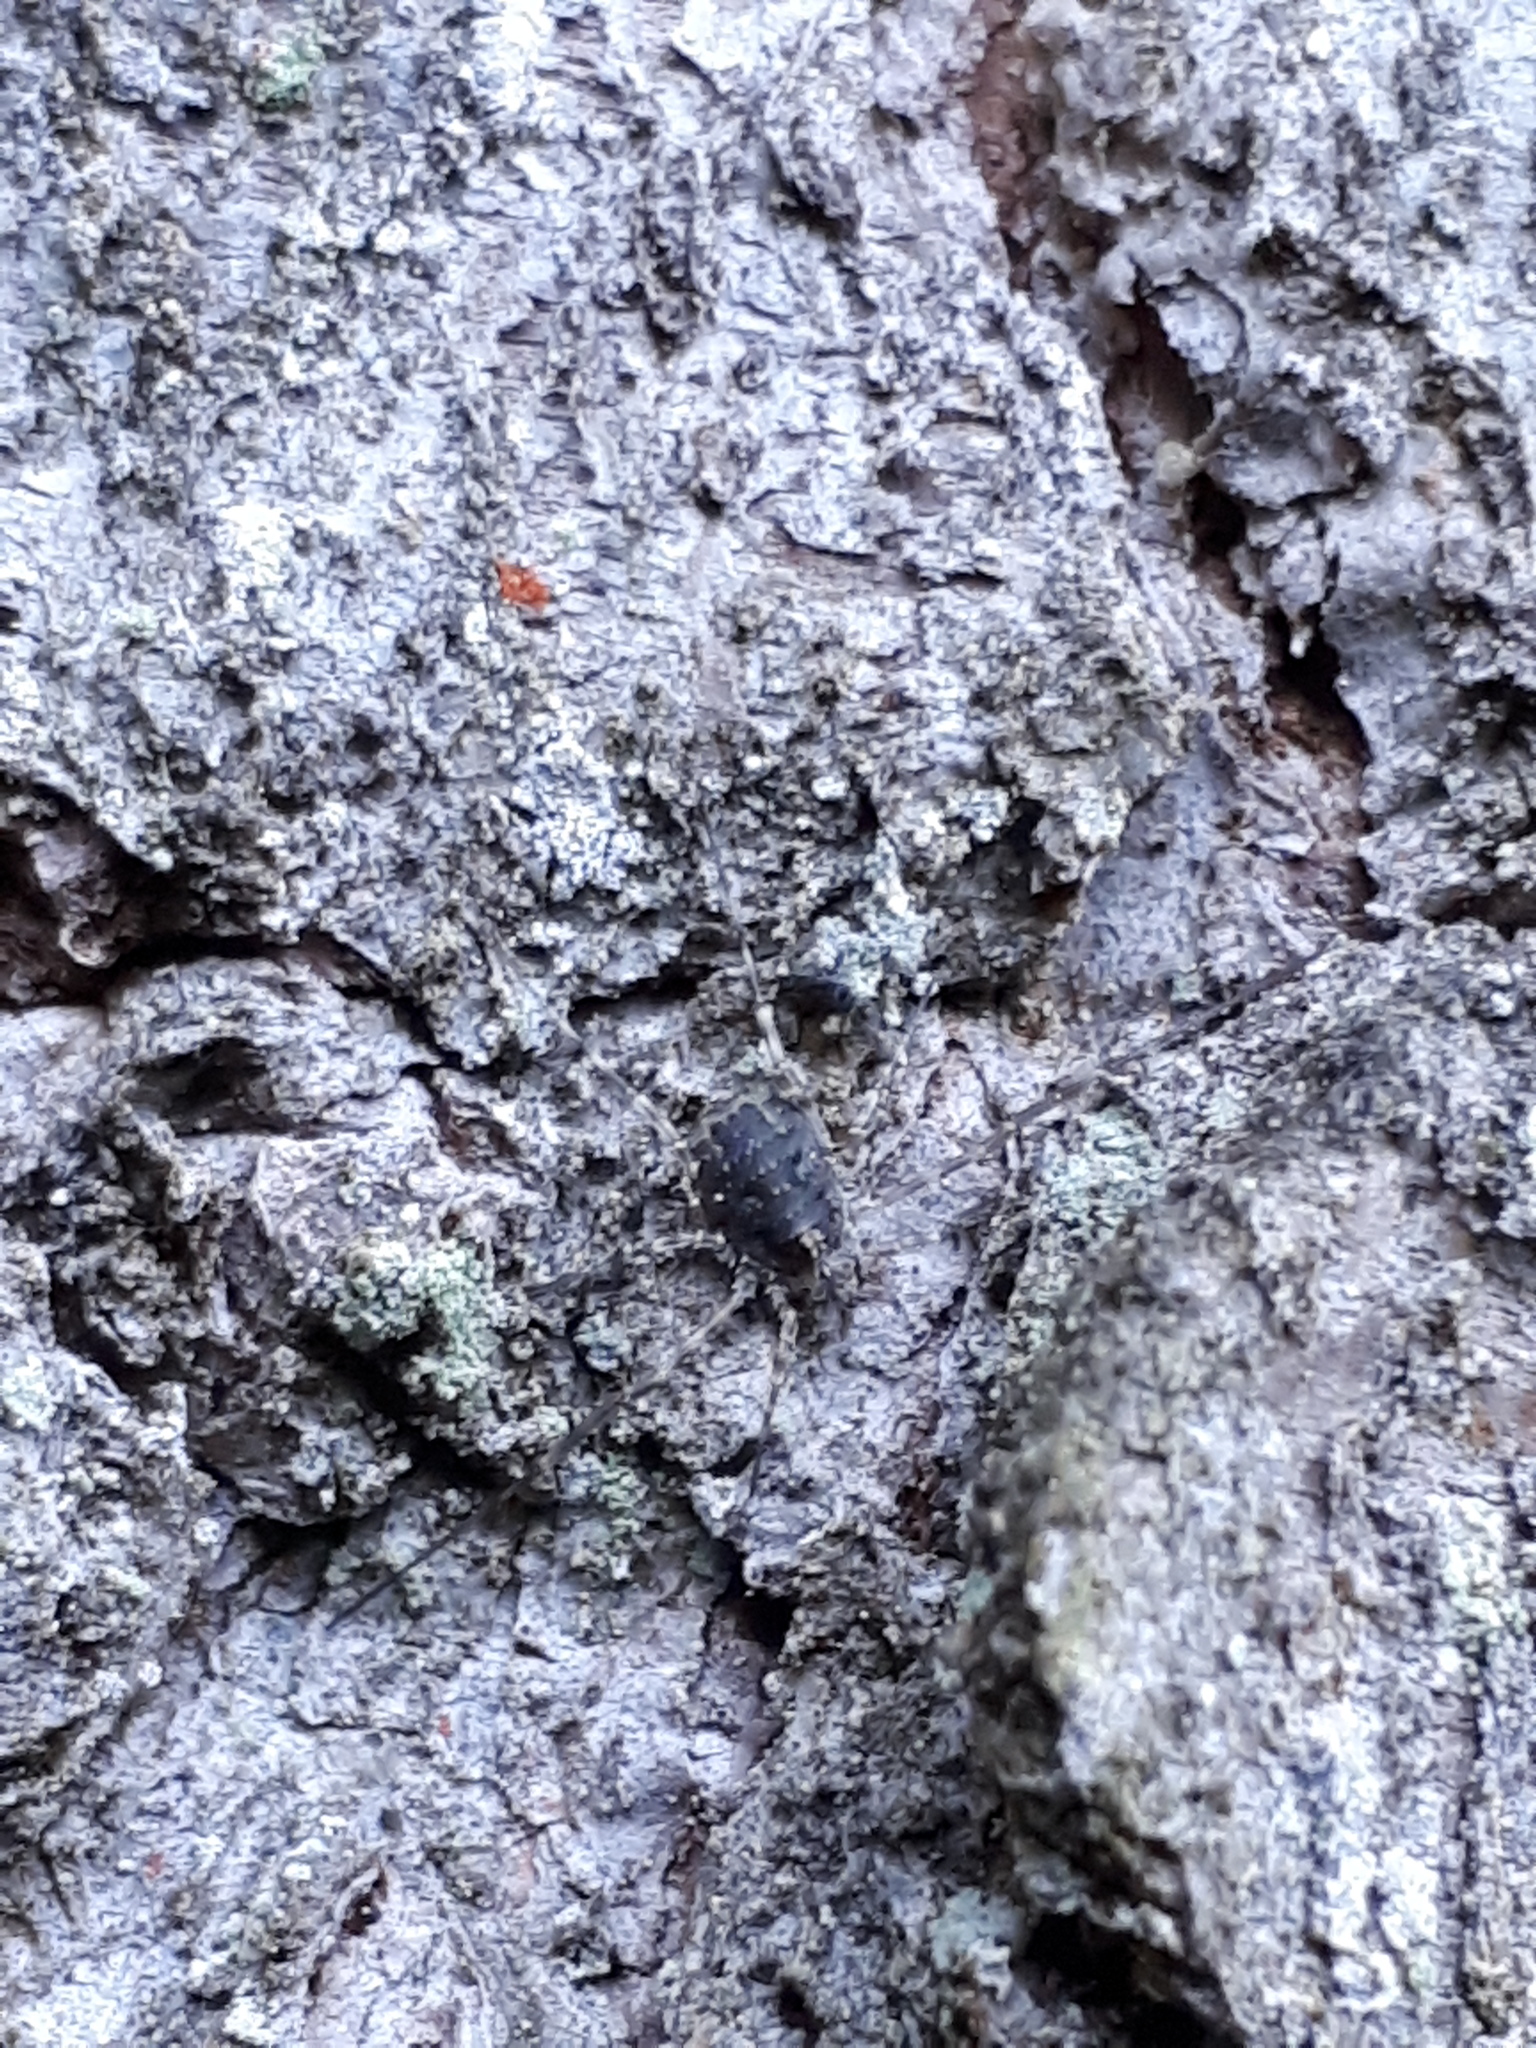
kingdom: Animalia
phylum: Arthropoda
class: Arachnida
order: Opiliones
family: Phalangiidae
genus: Lacinius
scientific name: Lacinius dentiger
